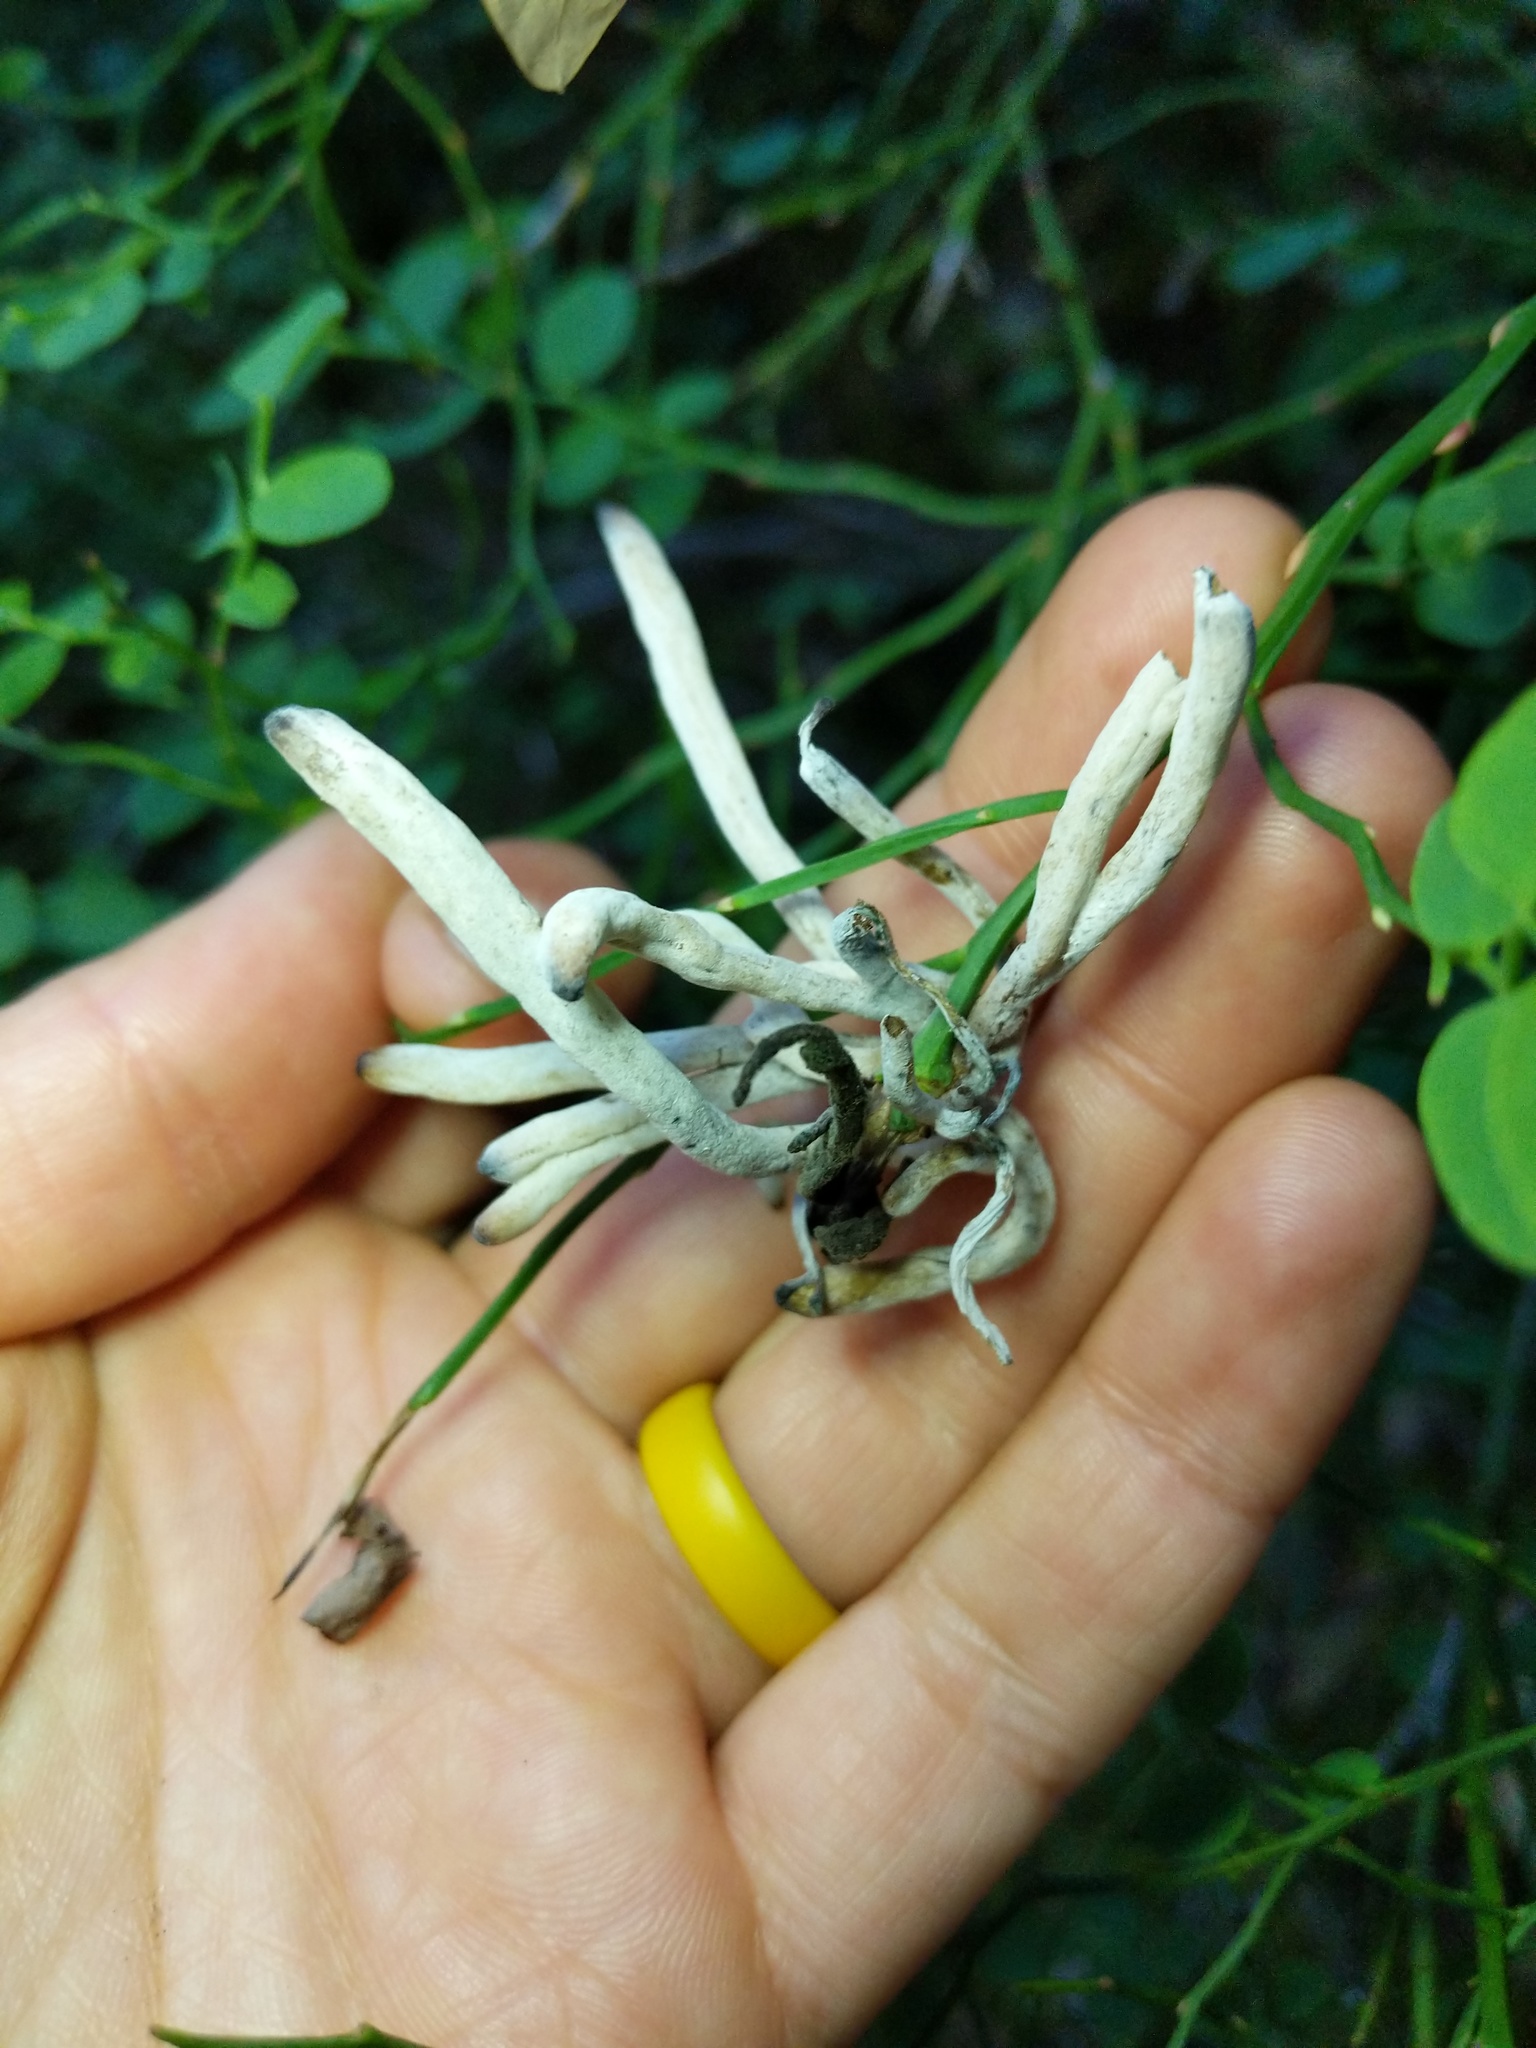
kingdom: Fungi
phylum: Basidiomycota
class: Exobasidiomycetes
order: Exobasidiales
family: Exobasidiaceae
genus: Exobasidium
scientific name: Exobasidium parvifolii
